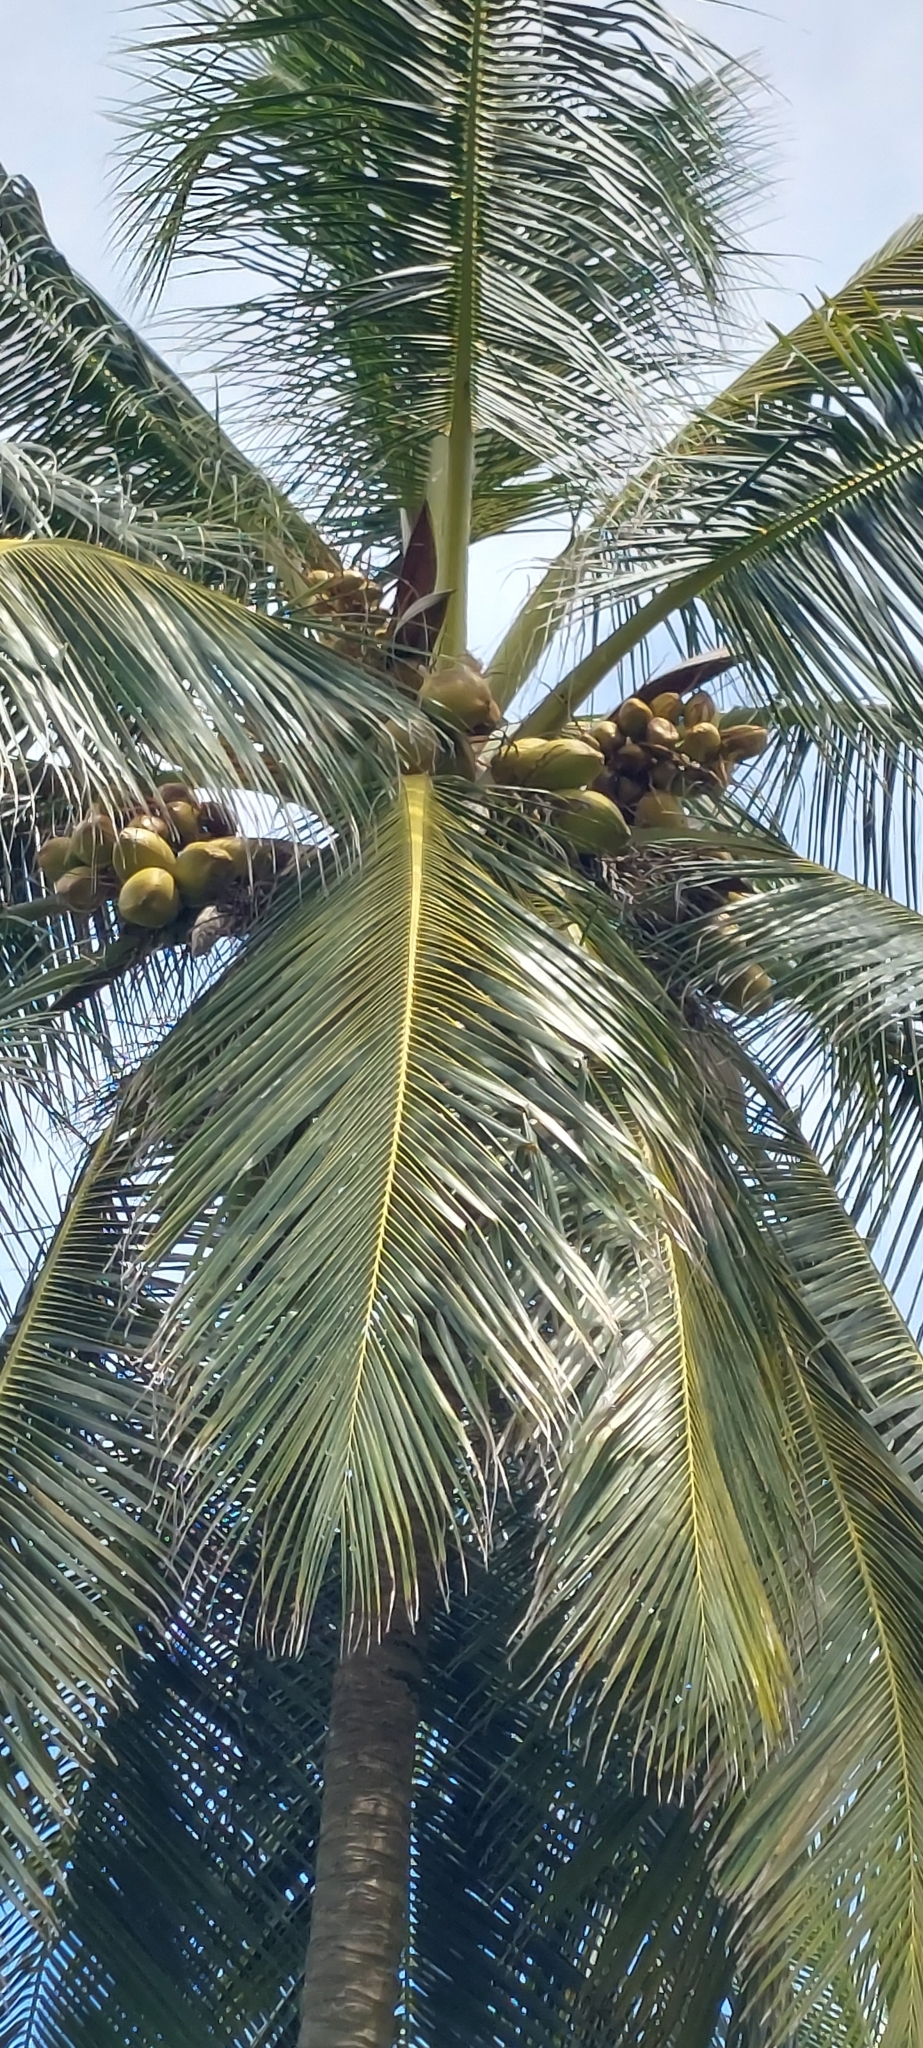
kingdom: Plantae
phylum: Tracheophyta
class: Liliopsida
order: Arecales
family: Arecaceae
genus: Cocos
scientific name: Cocos nucifera
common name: Coconut palm
